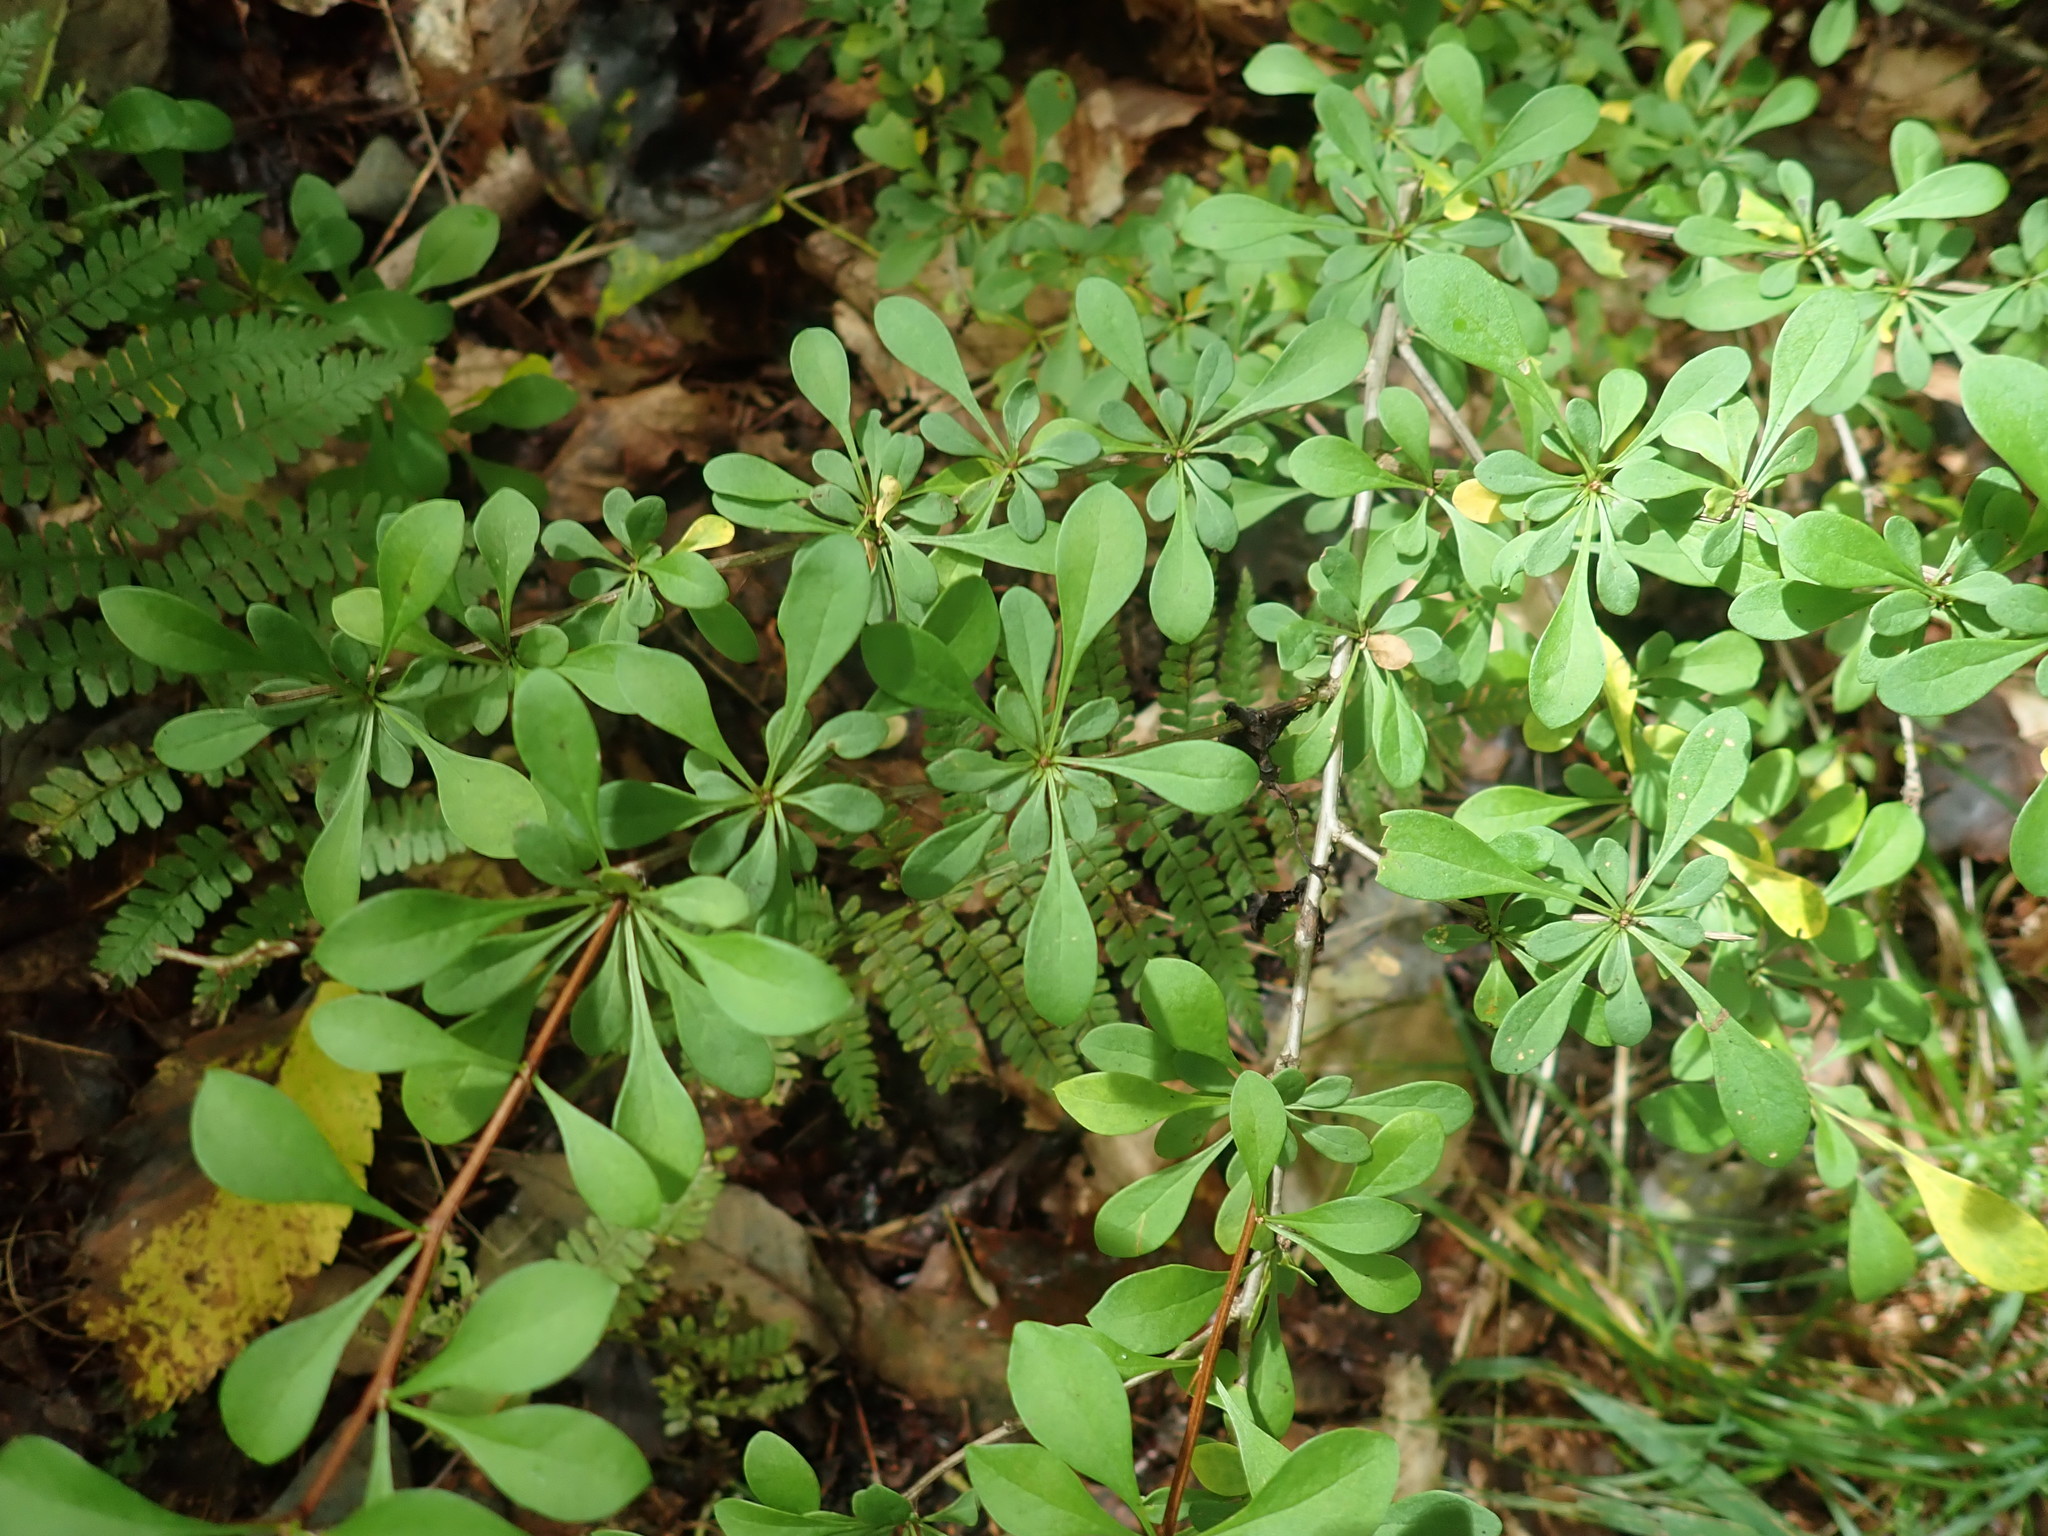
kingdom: Plantae
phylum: Tracheophyta
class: Magnoliopsida
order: Ranunculales
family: Berberidaceae
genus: Berberis
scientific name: Berberis thunbergii
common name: Japanese barberry
